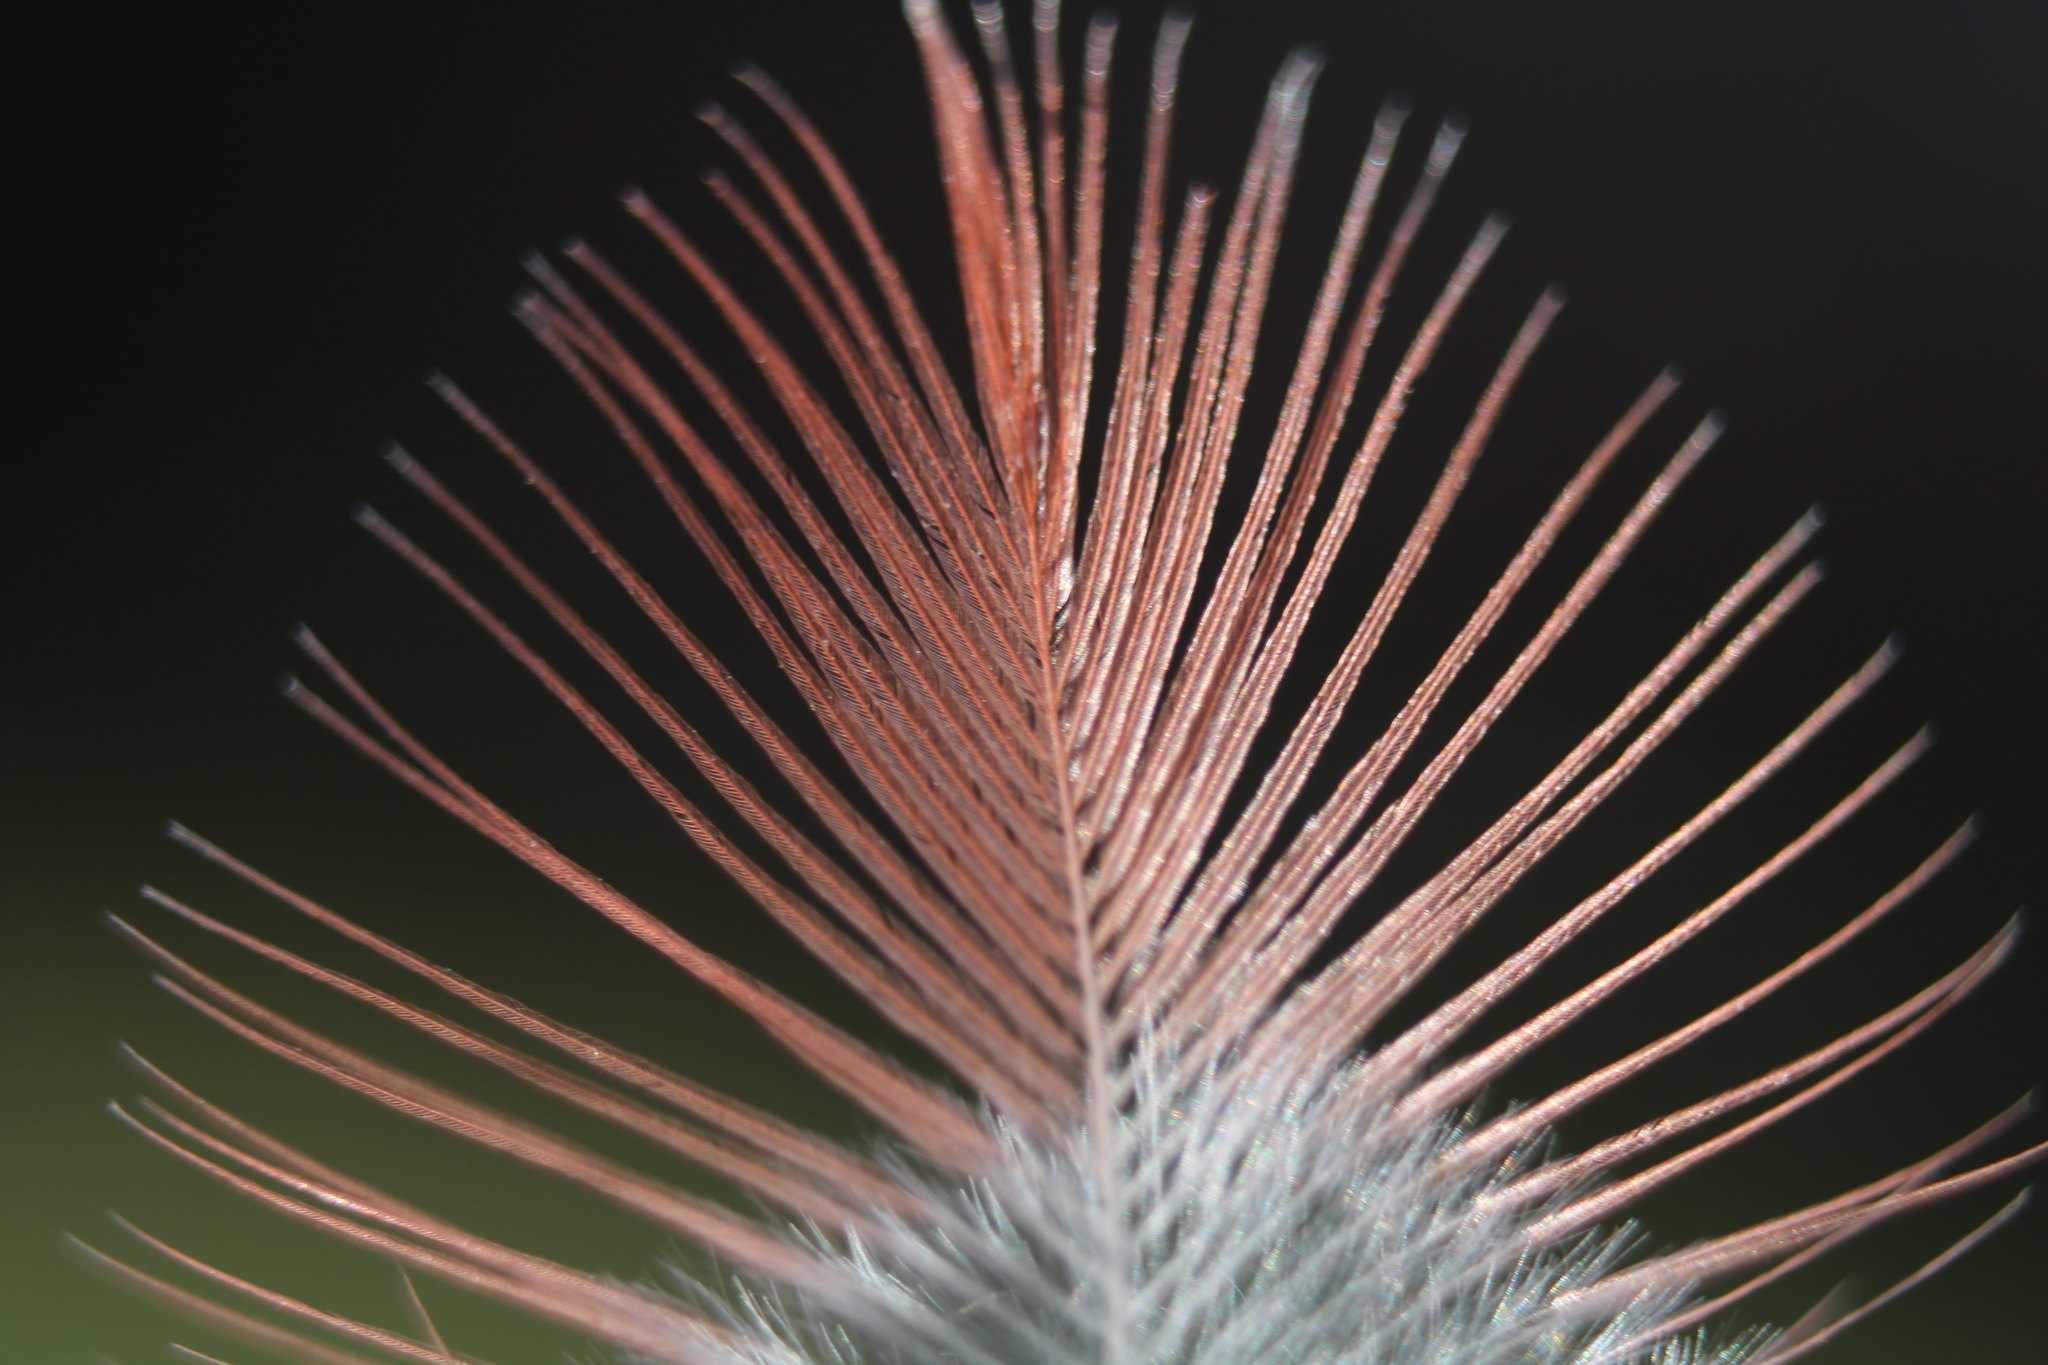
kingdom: Animalia
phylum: Chordata
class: Aves
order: Passeriformes
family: Cardinalidae
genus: Cardinalis
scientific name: Cardinalis cardinalis
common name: Northern cardinal
